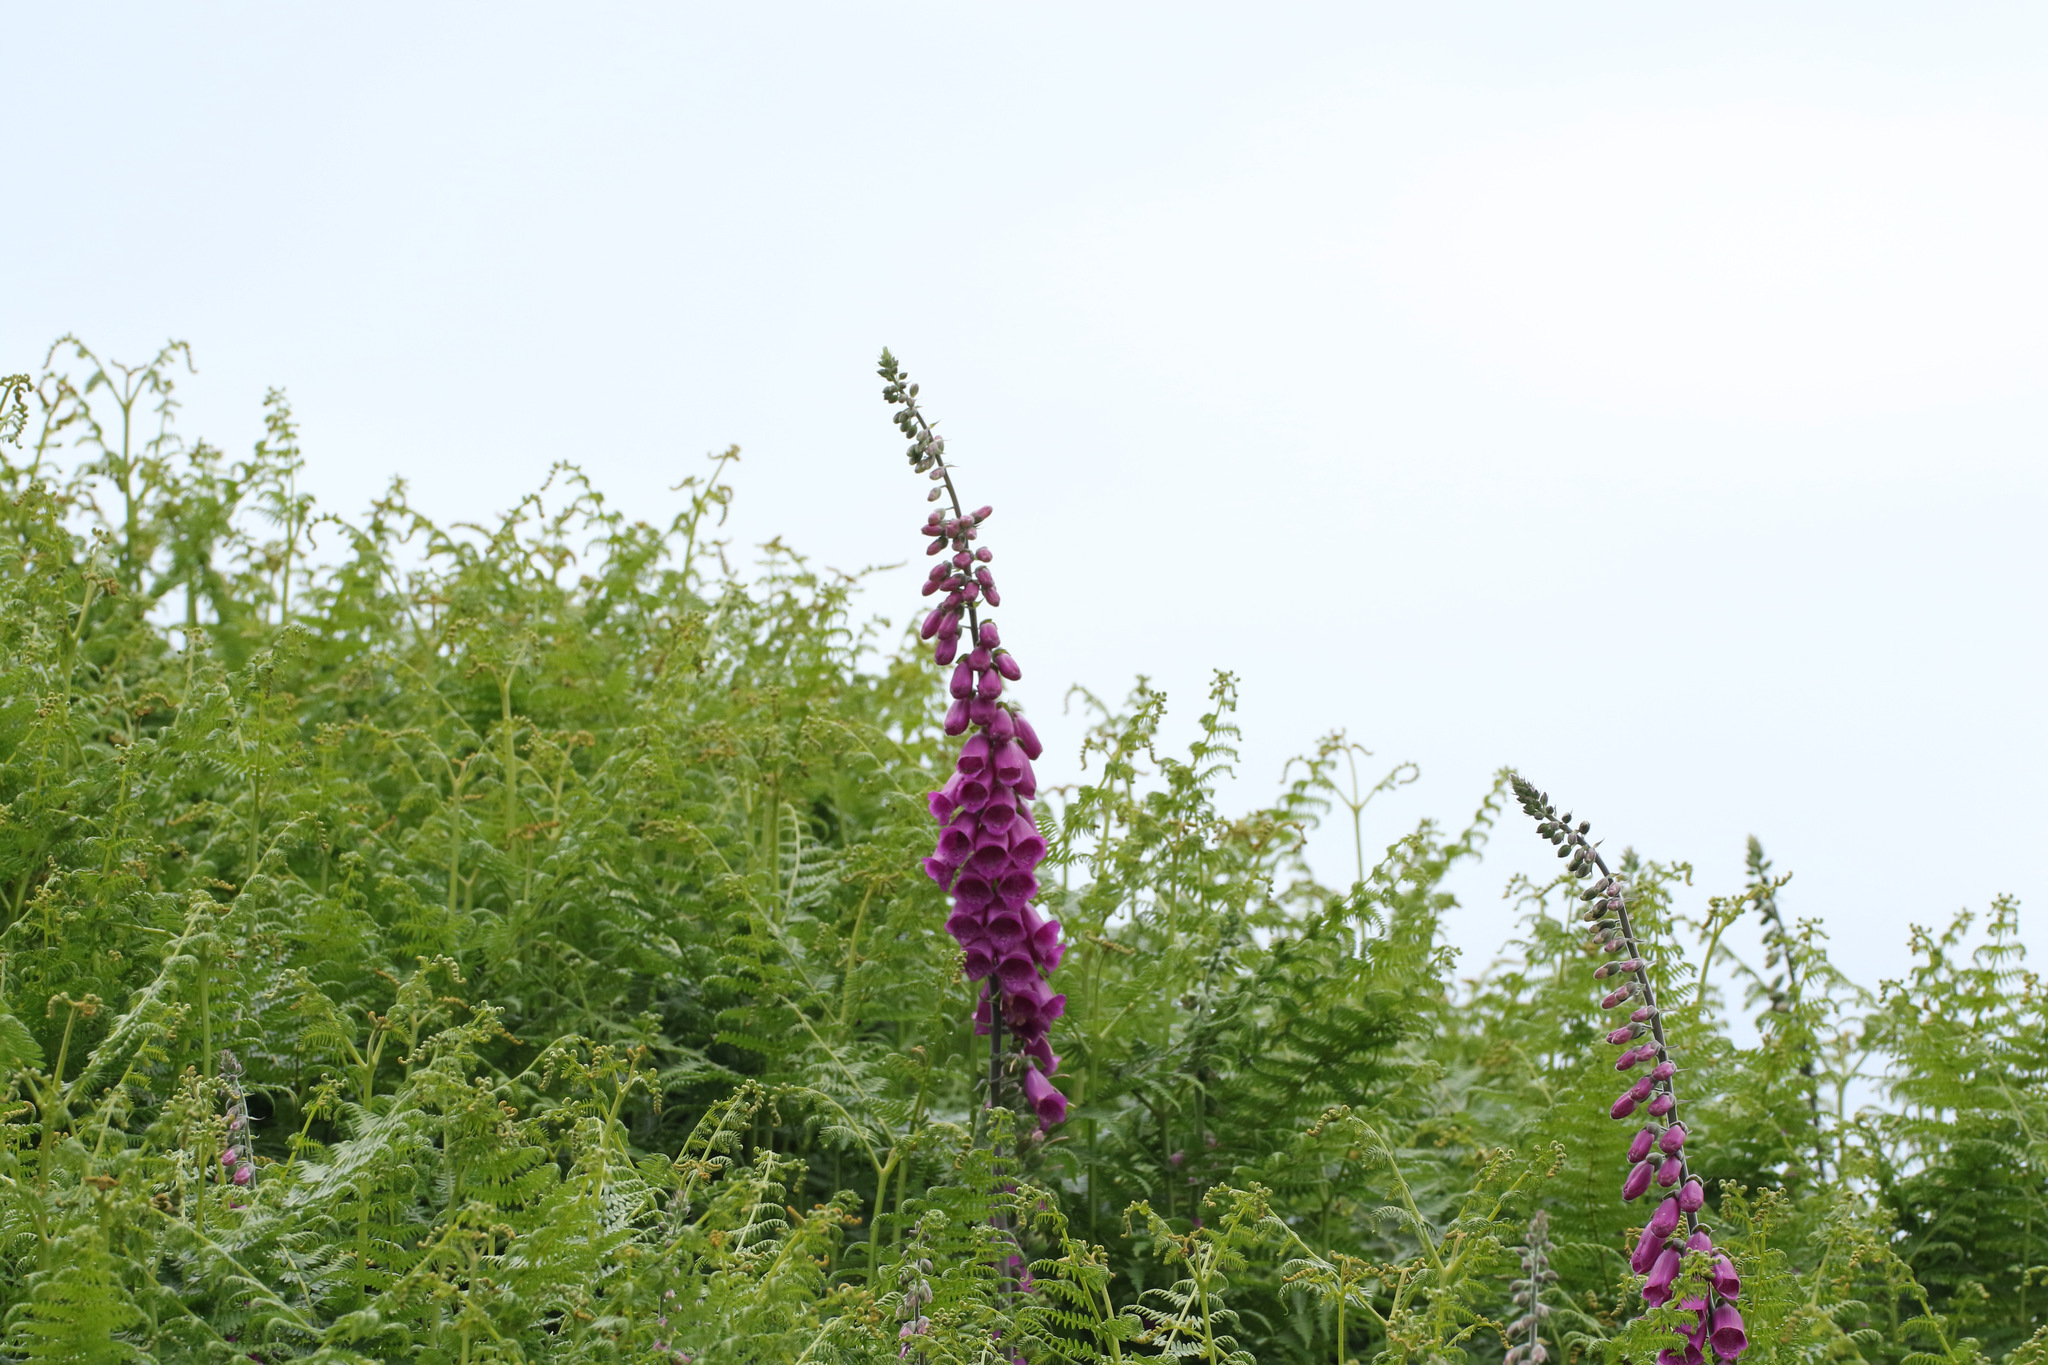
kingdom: Plantae
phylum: Tracheophyta
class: Magnoliopsida
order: Lamiales
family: Plantaginaceae
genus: Digitalis
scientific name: Digitalis purpurea
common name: Foxglove
